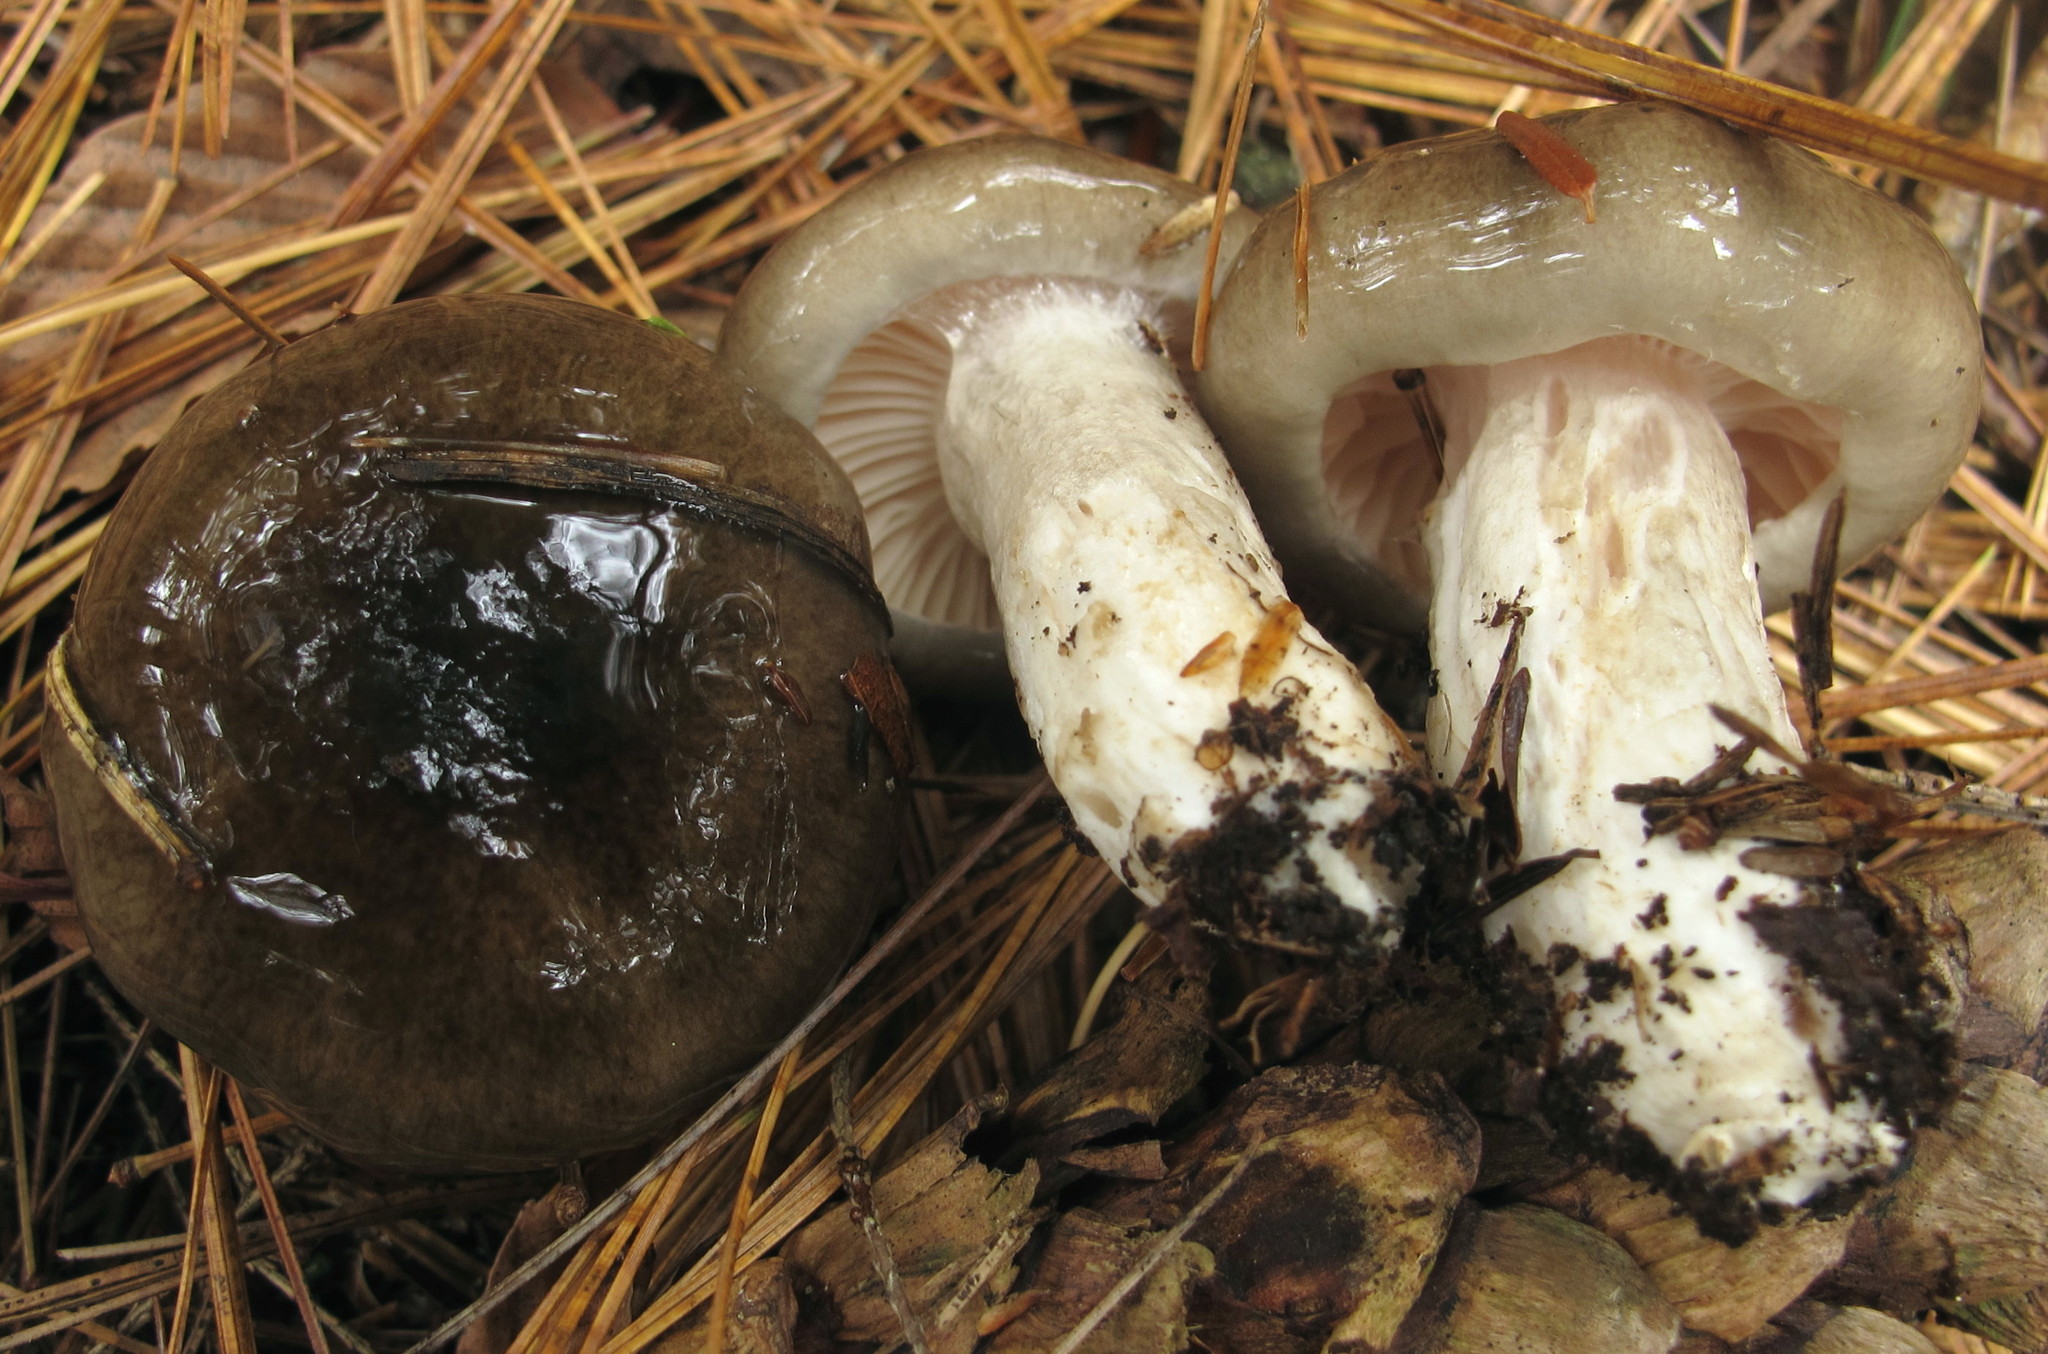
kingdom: Fungi
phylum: Basidiomycota
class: Agaricomycetes
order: Agaricales
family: Hygrophoraceae
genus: Hygrophorus
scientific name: Hygrophorus fuligineus
